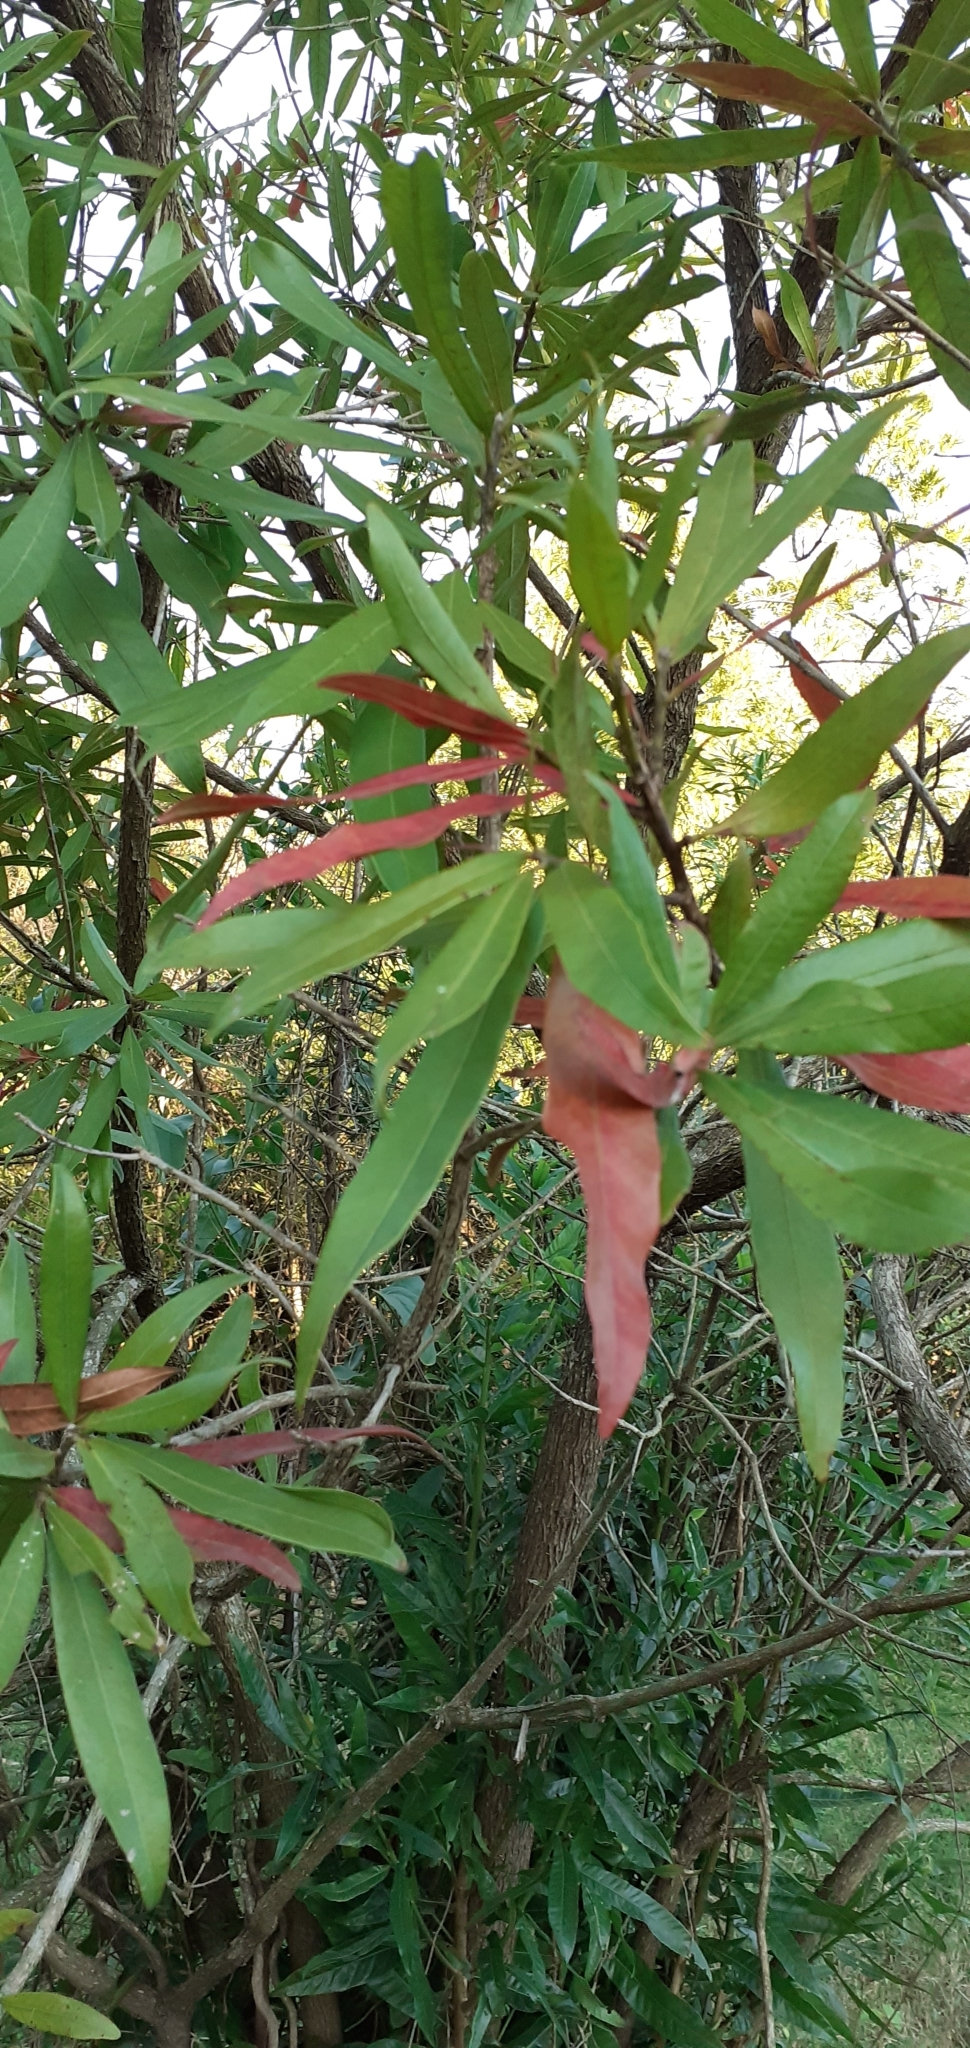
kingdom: Plantae
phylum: Tracheophyta
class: Magnoliopsida
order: Ericales
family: Sapotaceae
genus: Pouteria
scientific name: Pouteria gardneriana
